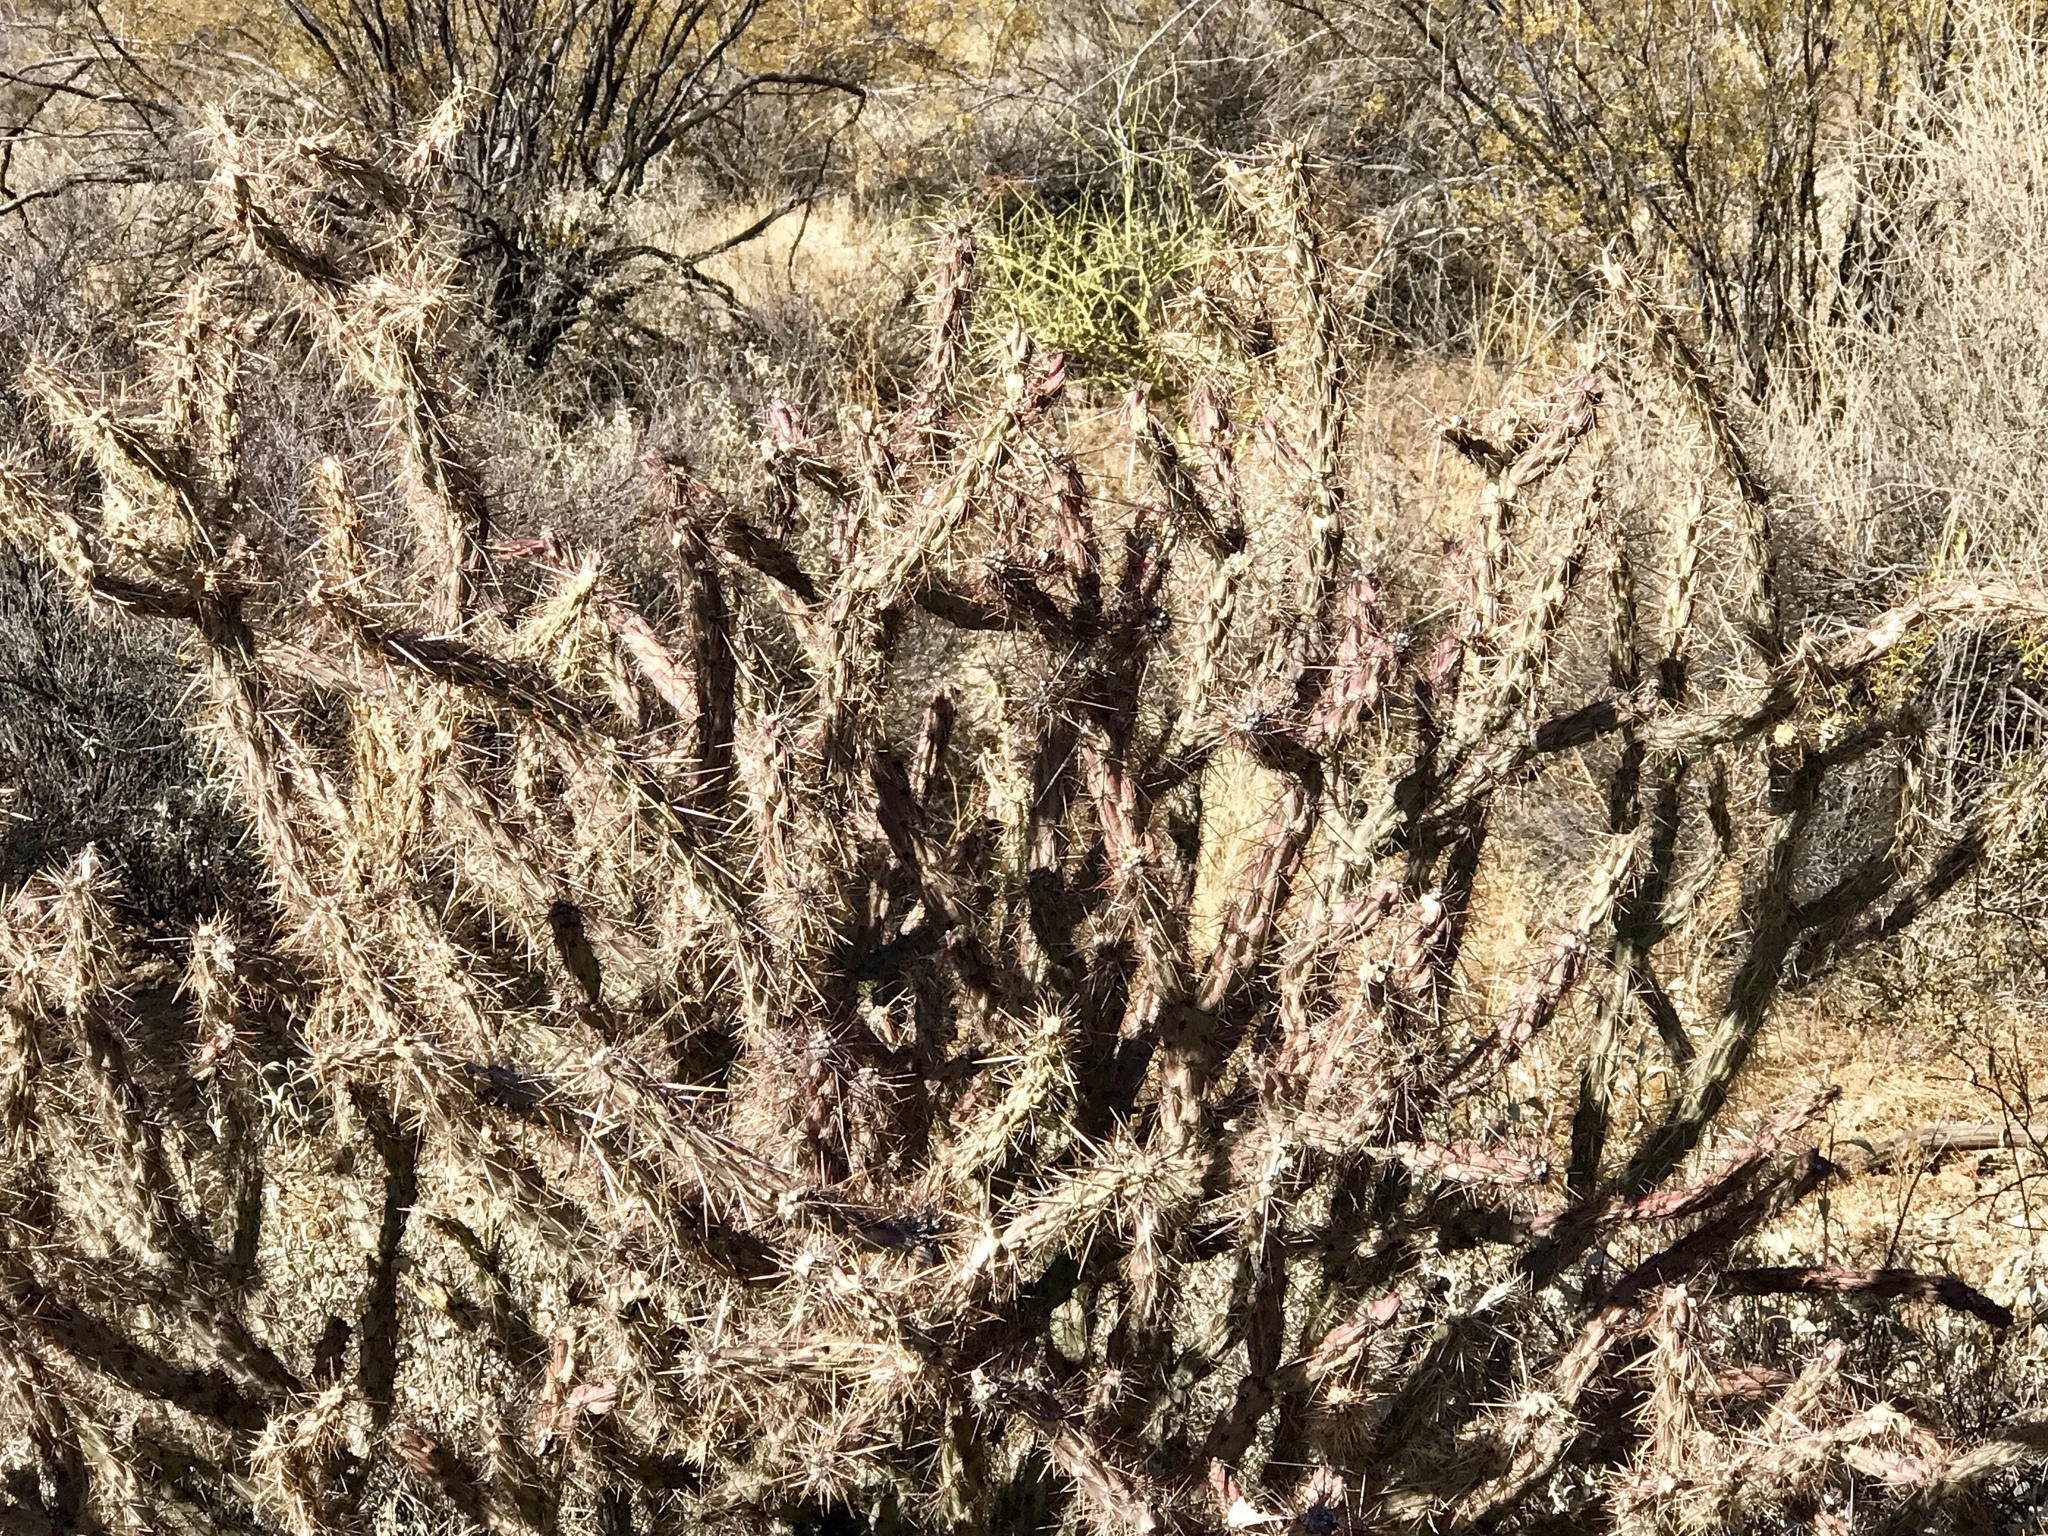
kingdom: Plantae
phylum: Tracheophyta
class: Magnoliopsida
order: Caryophyllales
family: Cactaceae
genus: Cylindropuntia
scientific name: Cylindropuntia acanthocarpa
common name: Buckhorn cholla
